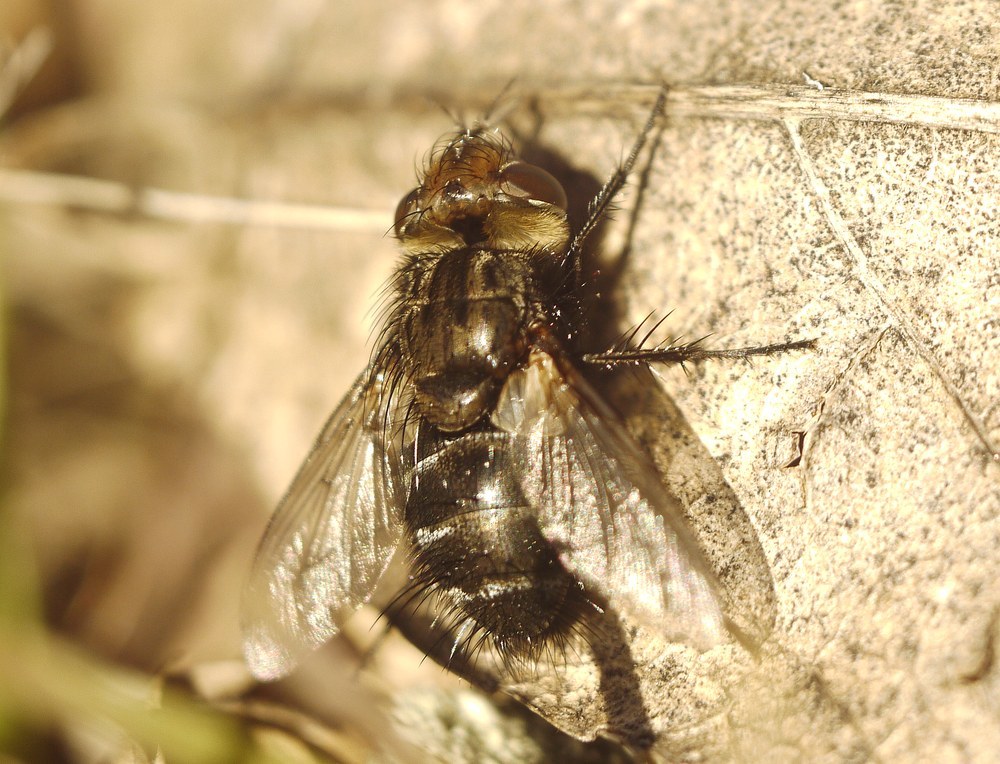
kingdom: Animalia
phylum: Arthropoda
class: Insecta
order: Diptera
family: Tachinidae
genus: Gonia
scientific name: Gonia picea
